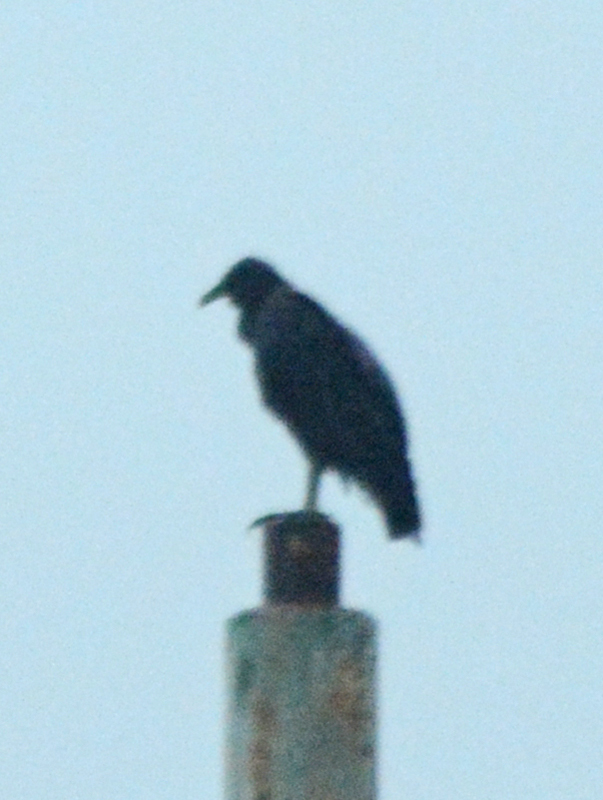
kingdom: Animalia
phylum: Chordata
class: Aves
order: Accipitriformes
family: Cathartidae
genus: Coragyps
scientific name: Coragyps atratus
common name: Black vulture
